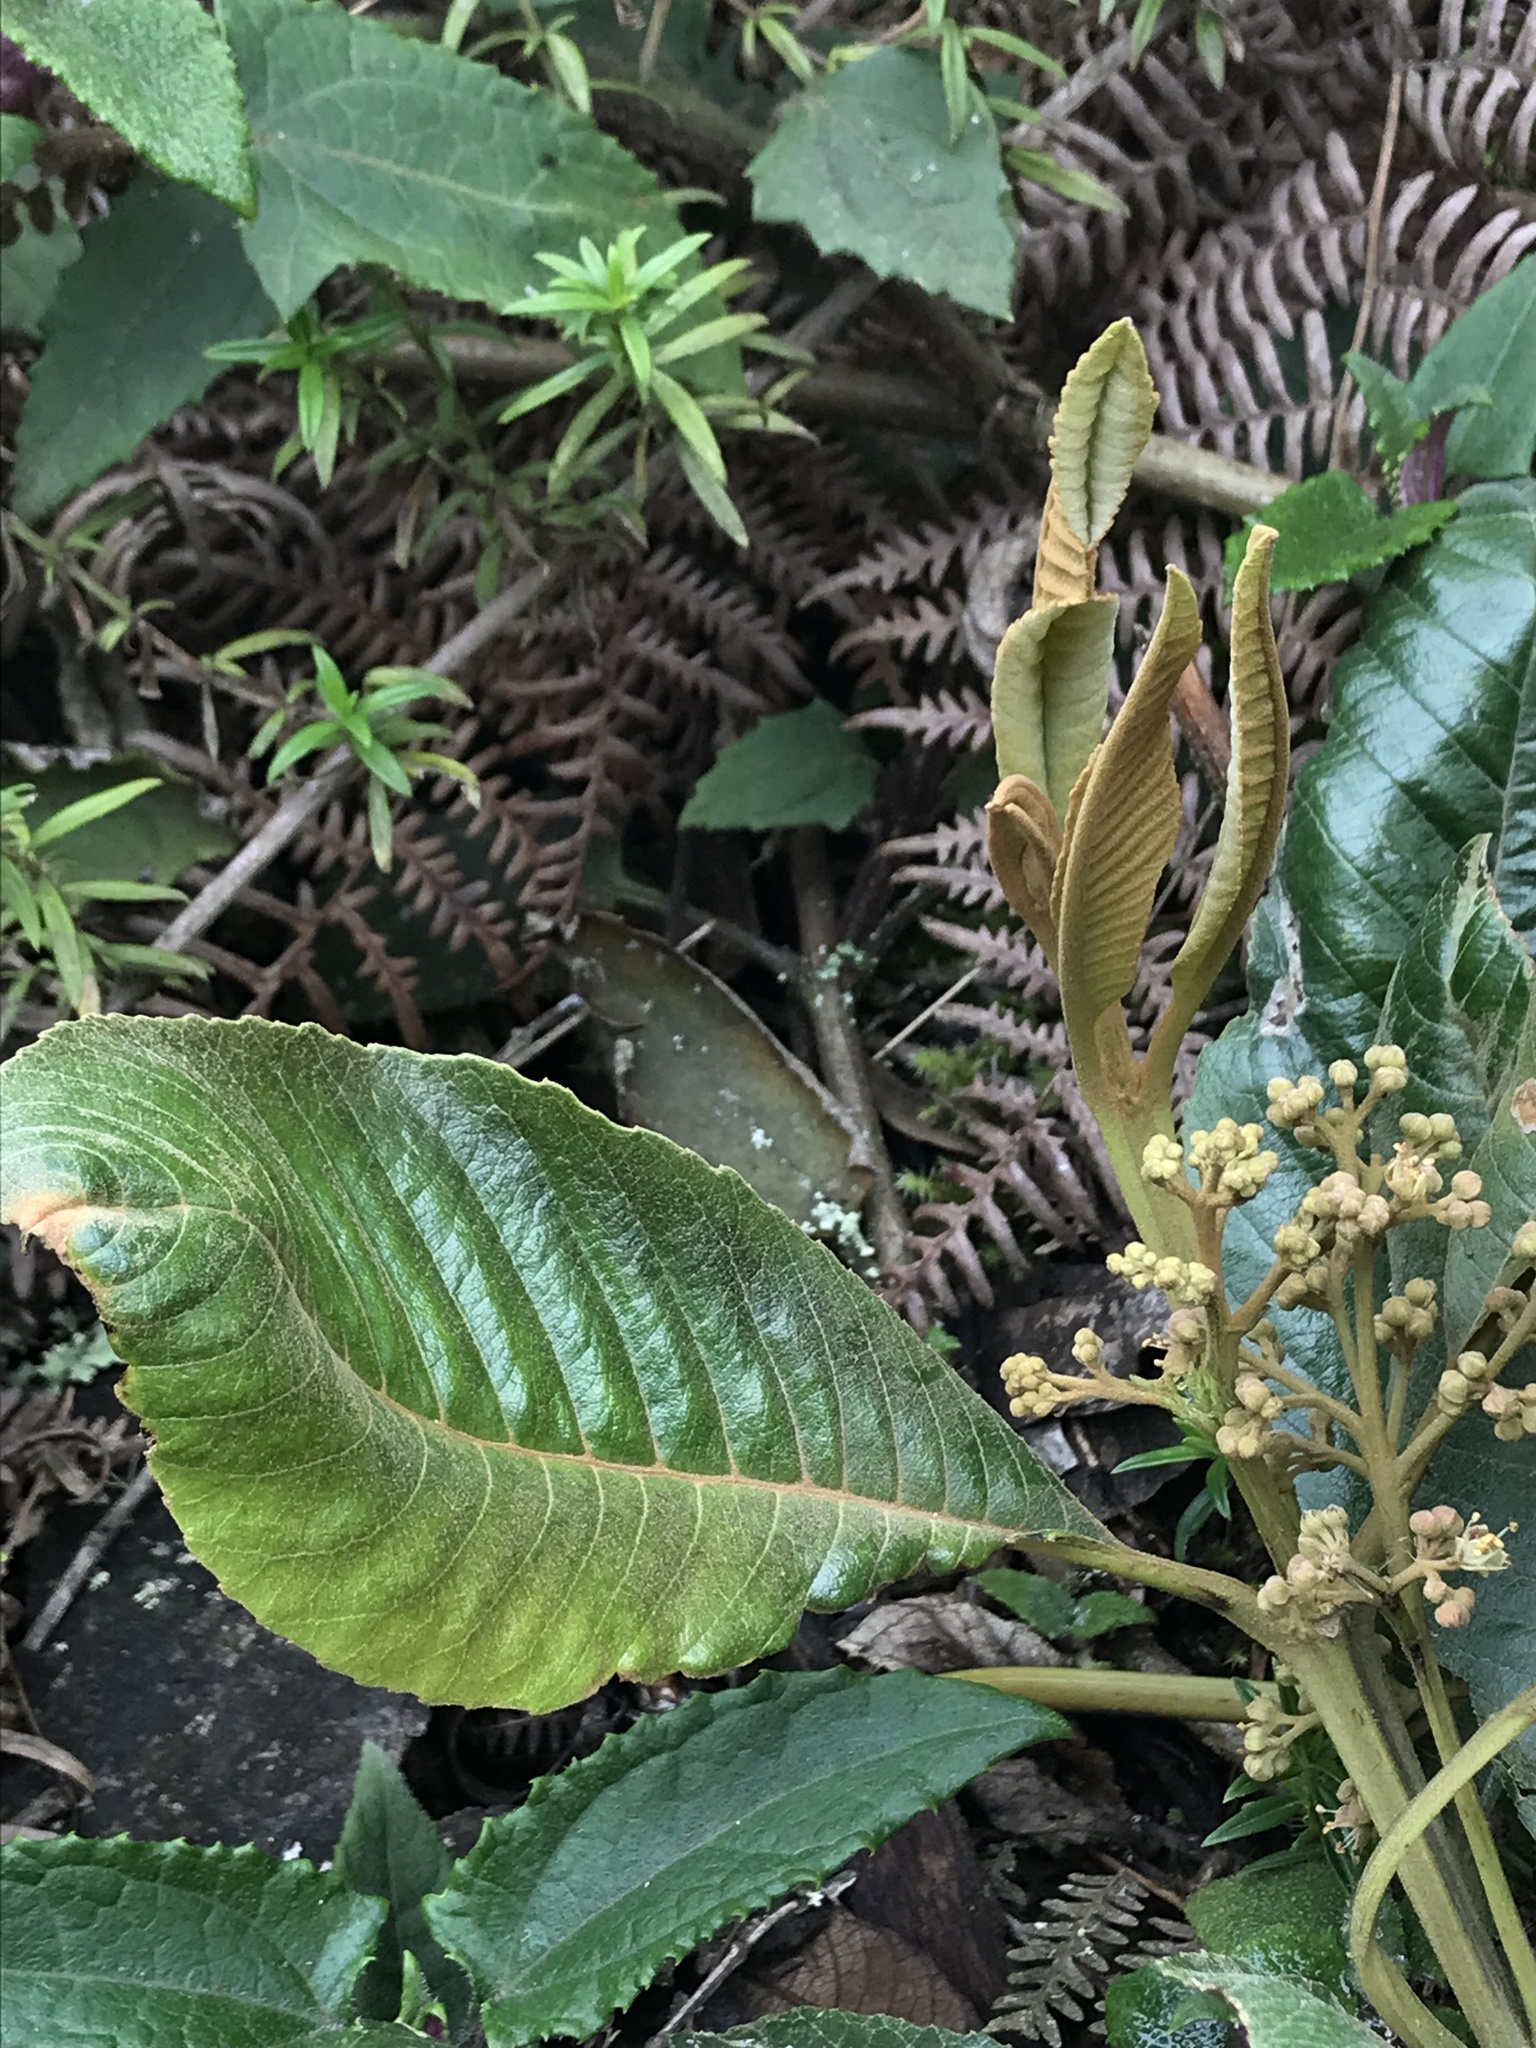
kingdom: Plantae
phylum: Tracheophyta
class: Magnoliopsida
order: Oxalidales
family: Brunelliaceae
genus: Brunellia
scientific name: Brunellia acutangula
